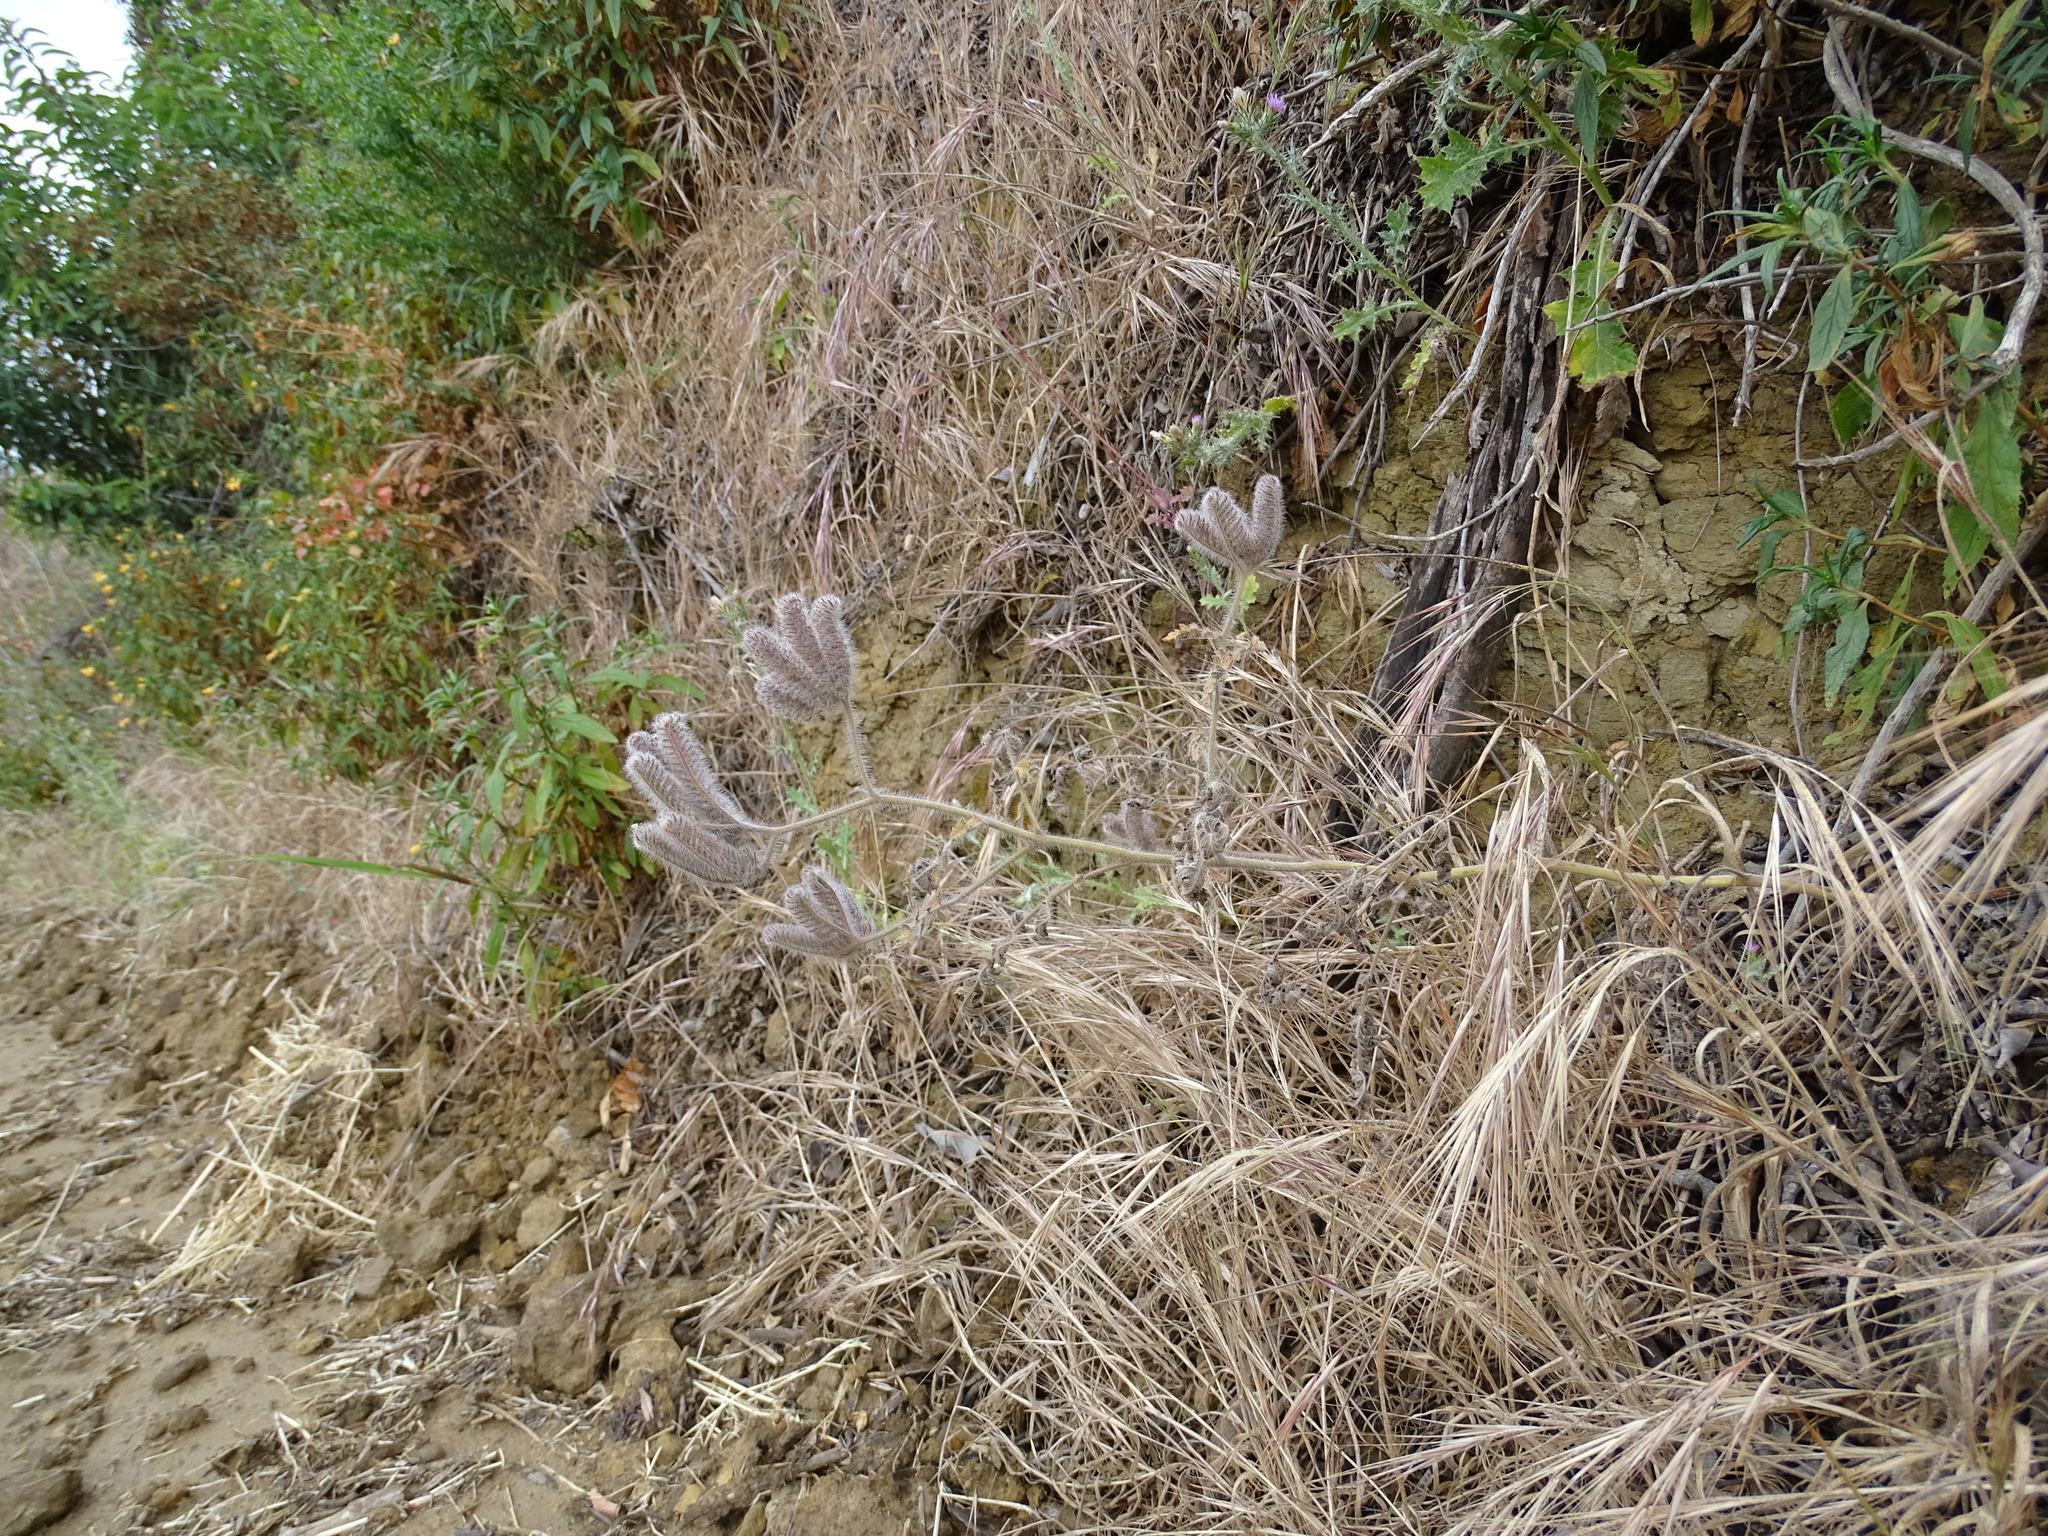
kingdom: Plantae
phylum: Tracheophyta
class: Magnoliopsida
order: Boraginales
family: Hydrophyllaceae
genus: Phacelia
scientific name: Phacelia cicutaria
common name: Caterpillar phacelia
